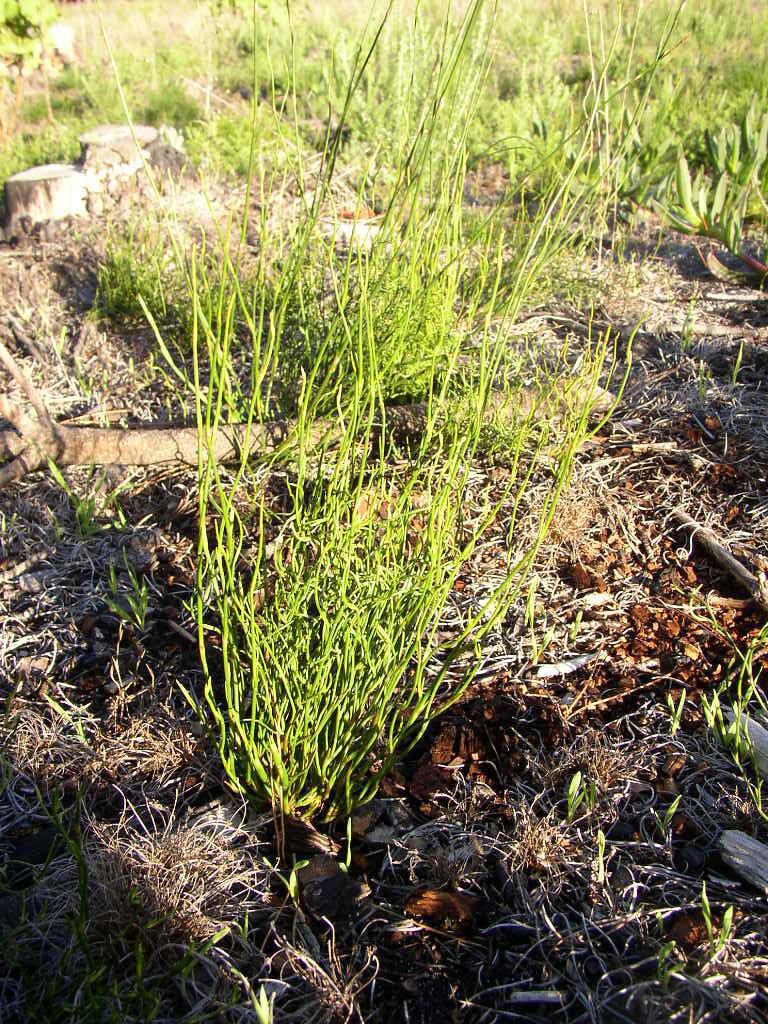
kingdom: Plantae
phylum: Tracheophyta
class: Liliopsida
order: Poales
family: Restionaceae
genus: Restio
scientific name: Restio bifurcus
